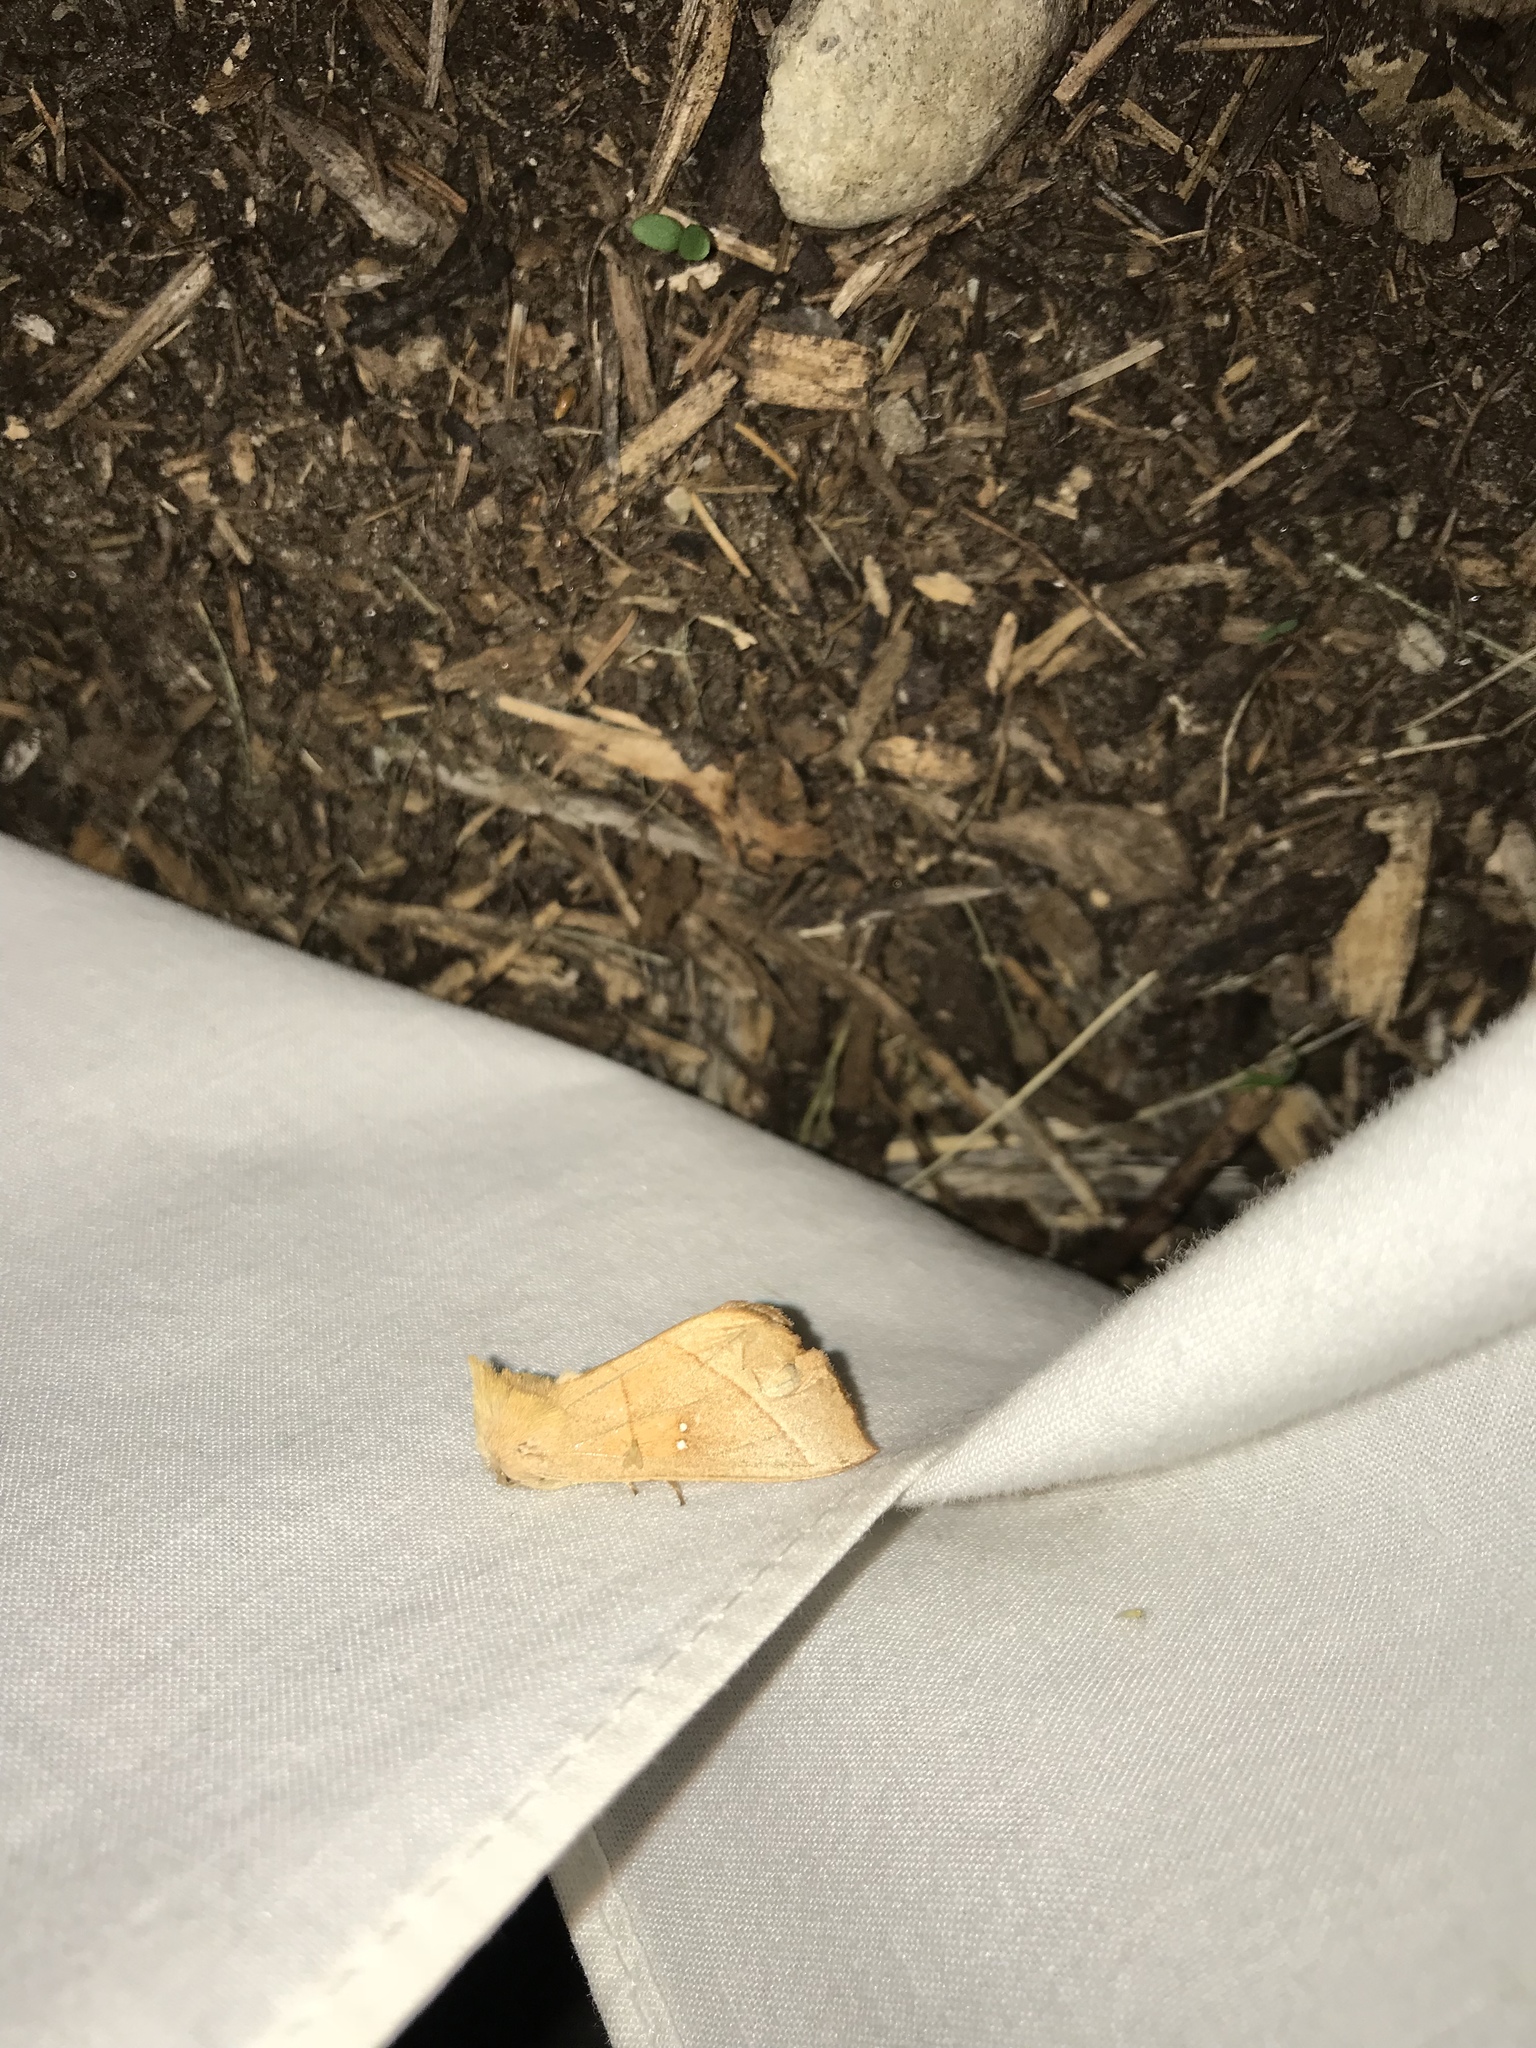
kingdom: Animalia
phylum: Arthropoda
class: Insecta
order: Lepidoptera
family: Notodontidae
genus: Nadata
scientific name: Nadata gibbosa
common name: White-dotted prominent
